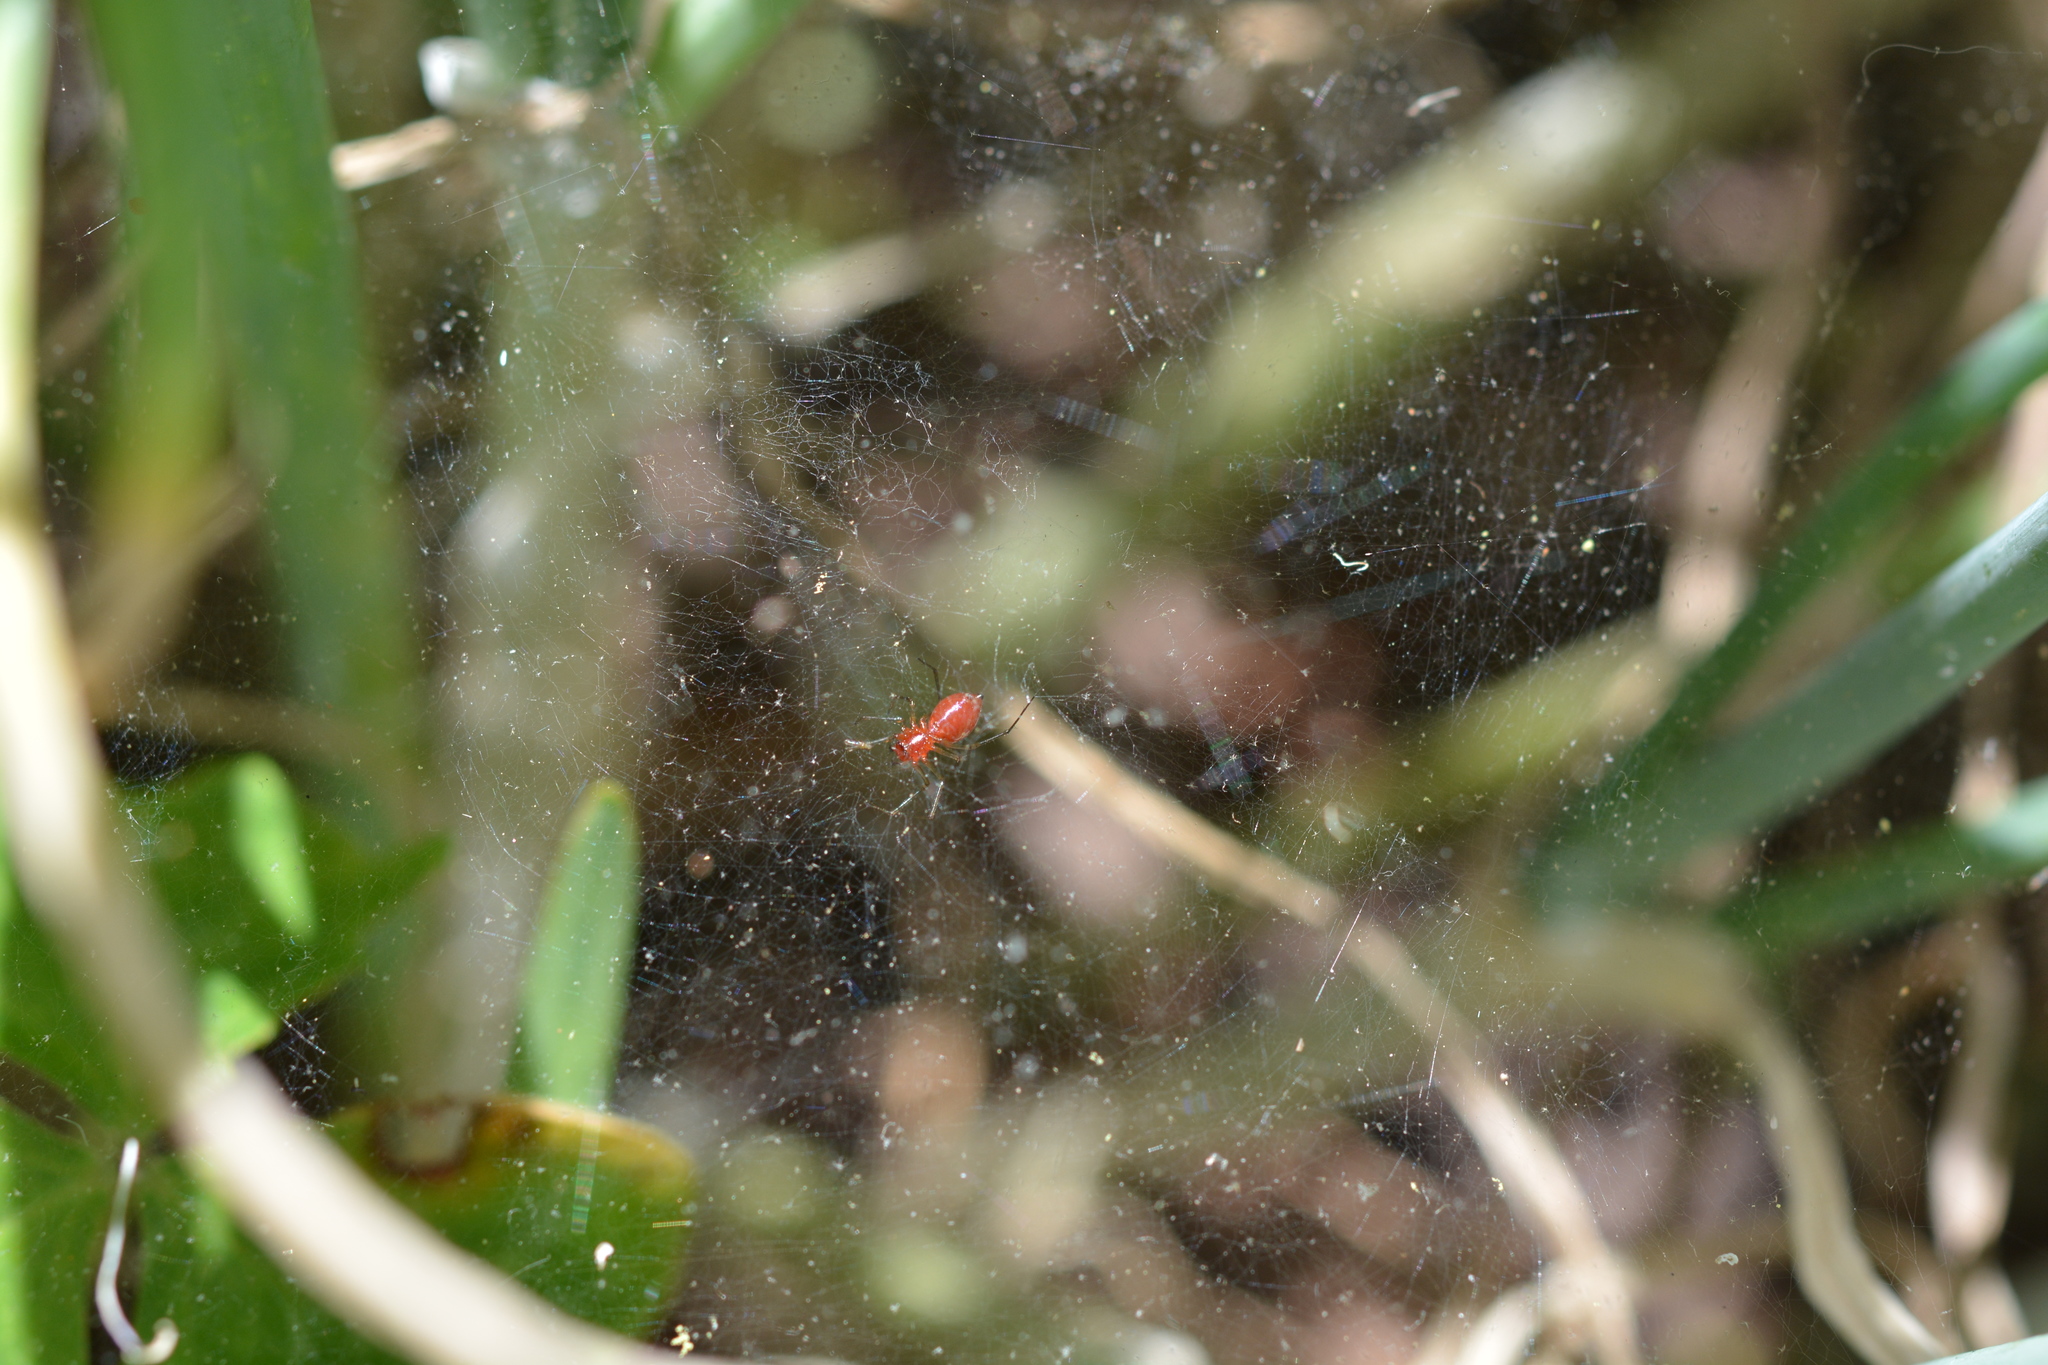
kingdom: Animalia
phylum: Arthropoda
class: Arachnida
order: Araneae
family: Linyphiidae
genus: Florinda
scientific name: Florinda coccinea
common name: Black-tailed red sheetweaver
